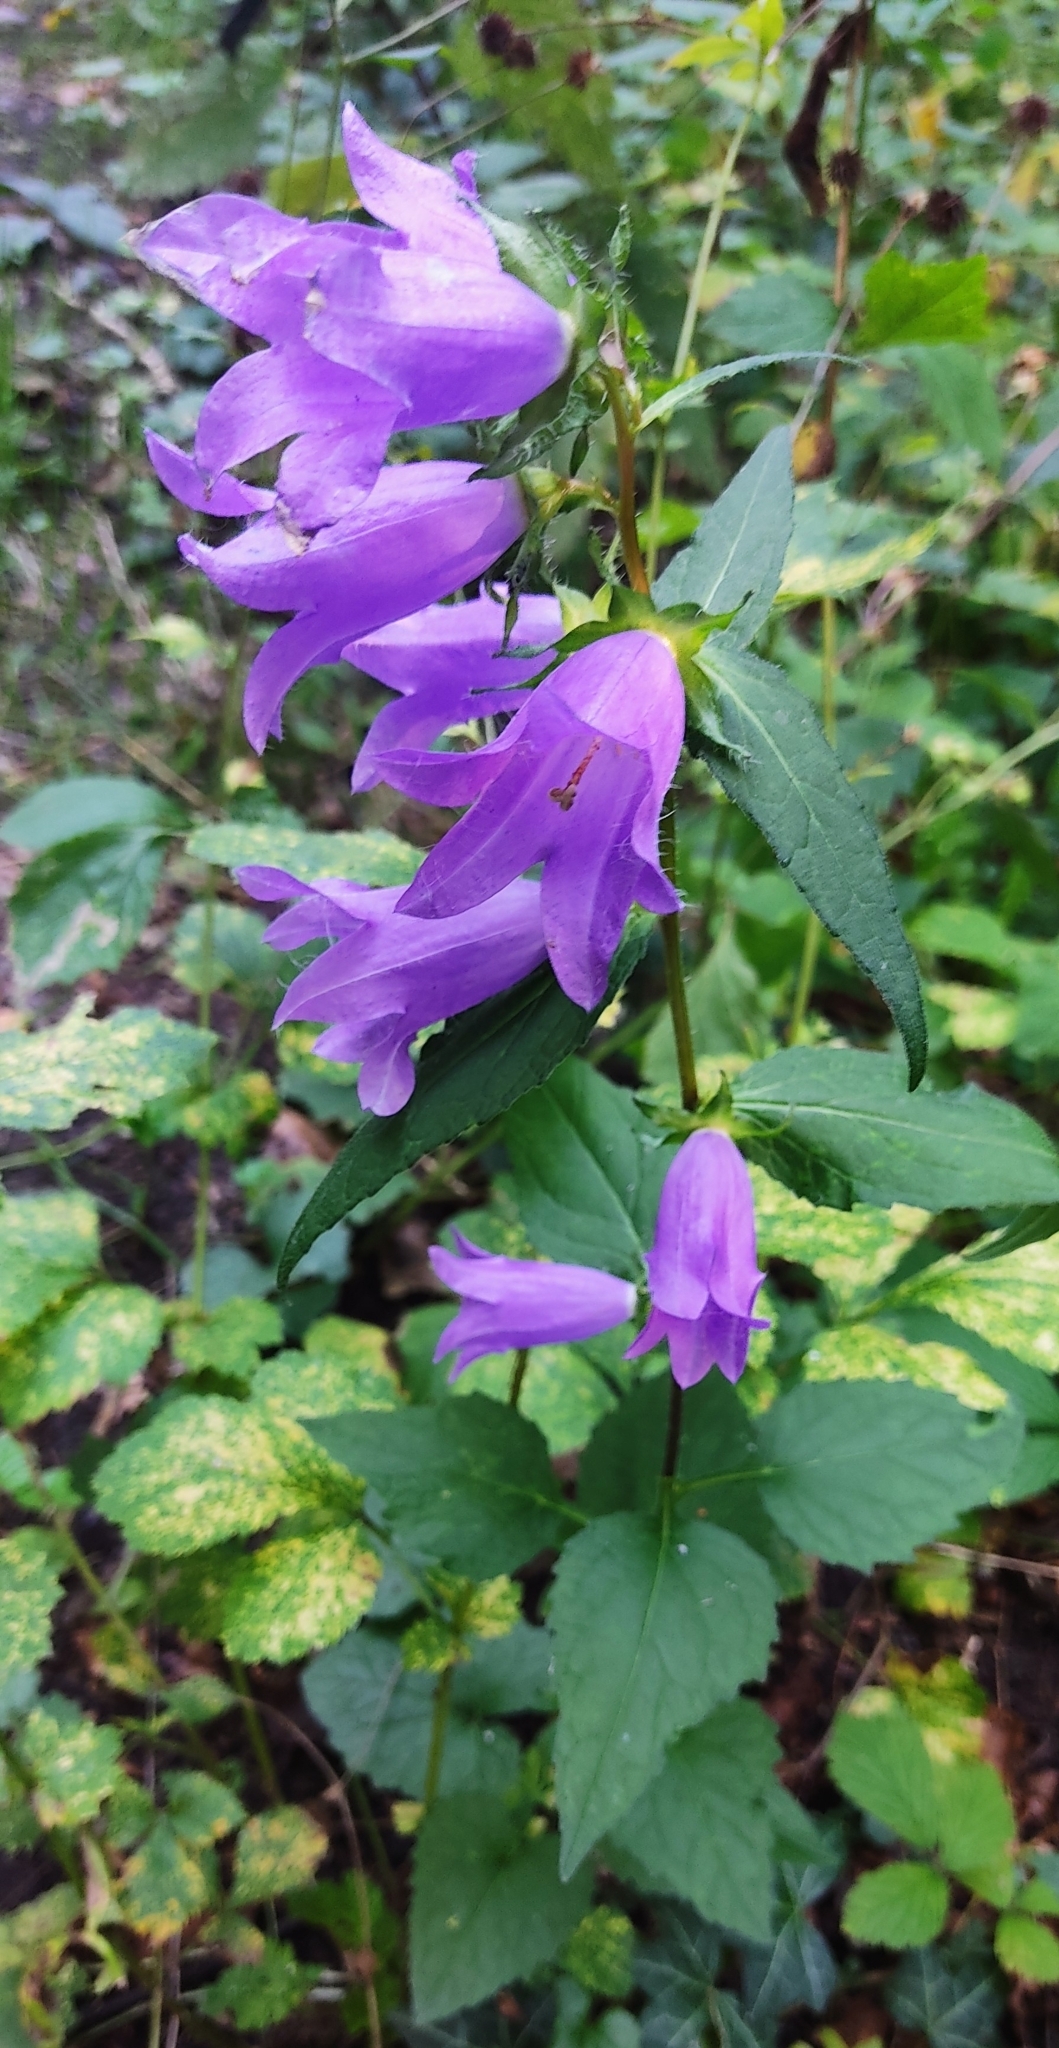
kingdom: Plantae
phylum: Tracheophyta
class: Magnoliopsida
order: Asterales
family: Campanulaceae
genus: Campanula
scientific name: Campanula trachelium
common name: Nettle-leaved bellflower
